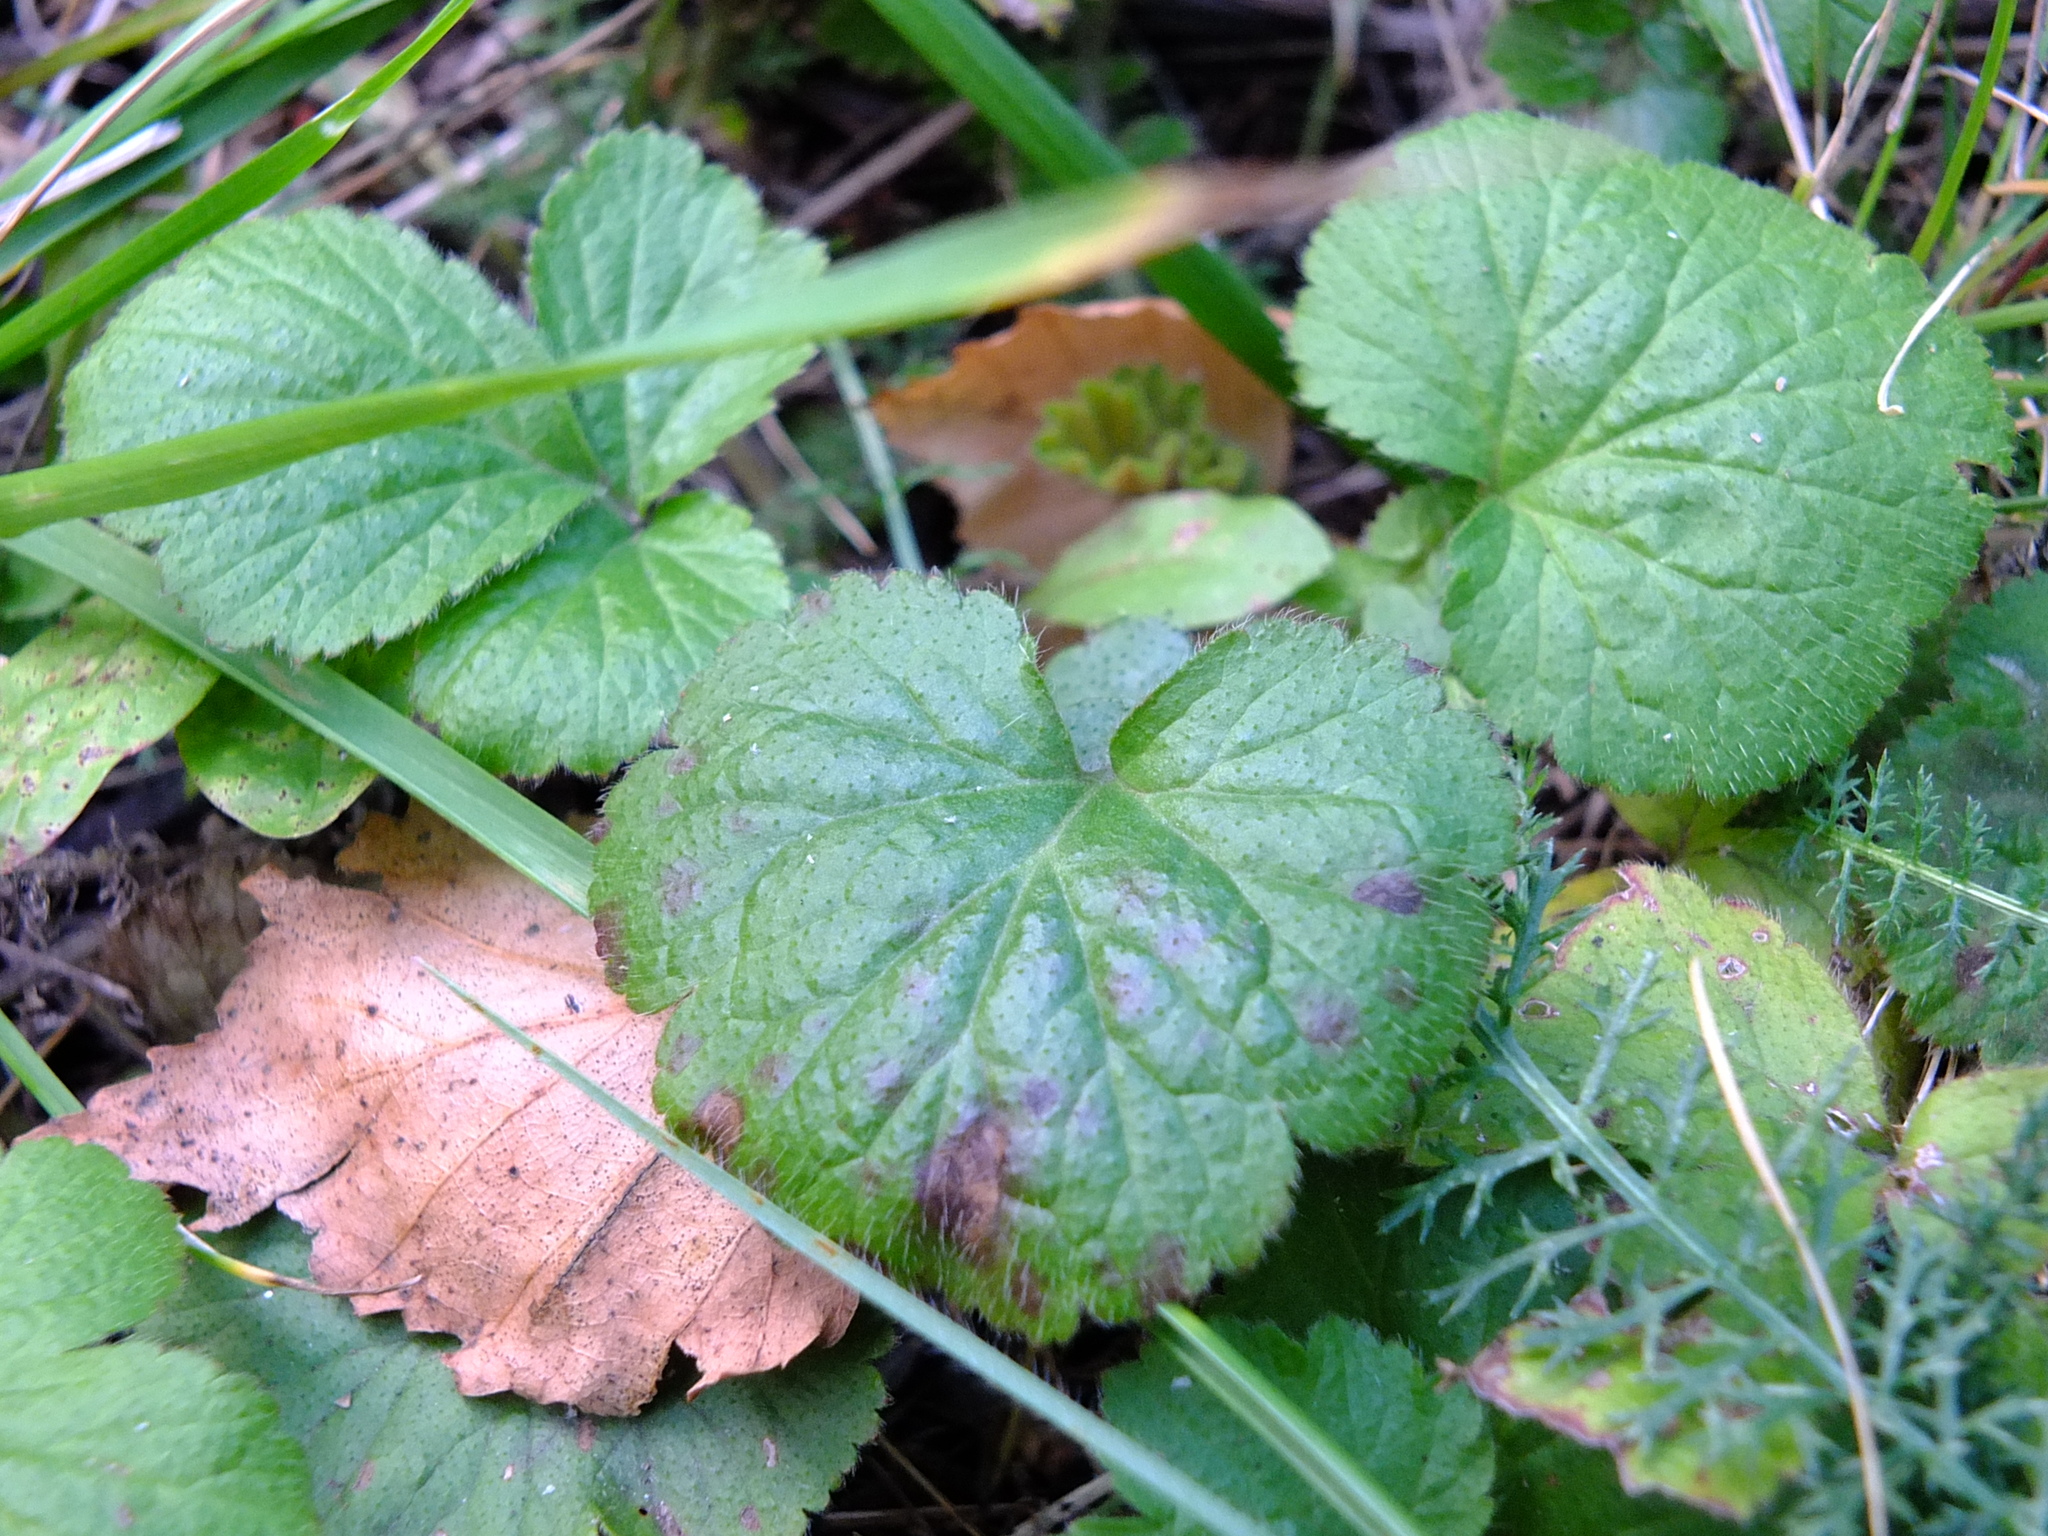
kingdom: Plantae
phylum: Tracheophyta
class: Magnoliopsida
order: Rosales
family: Rosaceae
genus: Geum
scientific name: Geum
